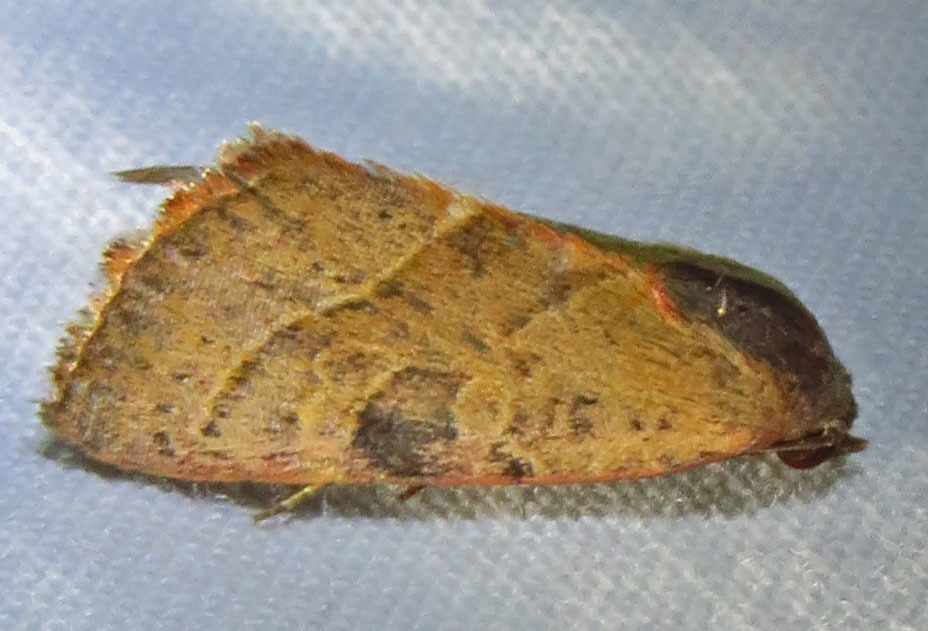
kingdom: Animalia
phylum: Arthropoda
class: Insecta
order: Lepidoptera
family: Noctuidae
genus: Galgula
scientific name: Galgula partita
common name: Wedgeling
